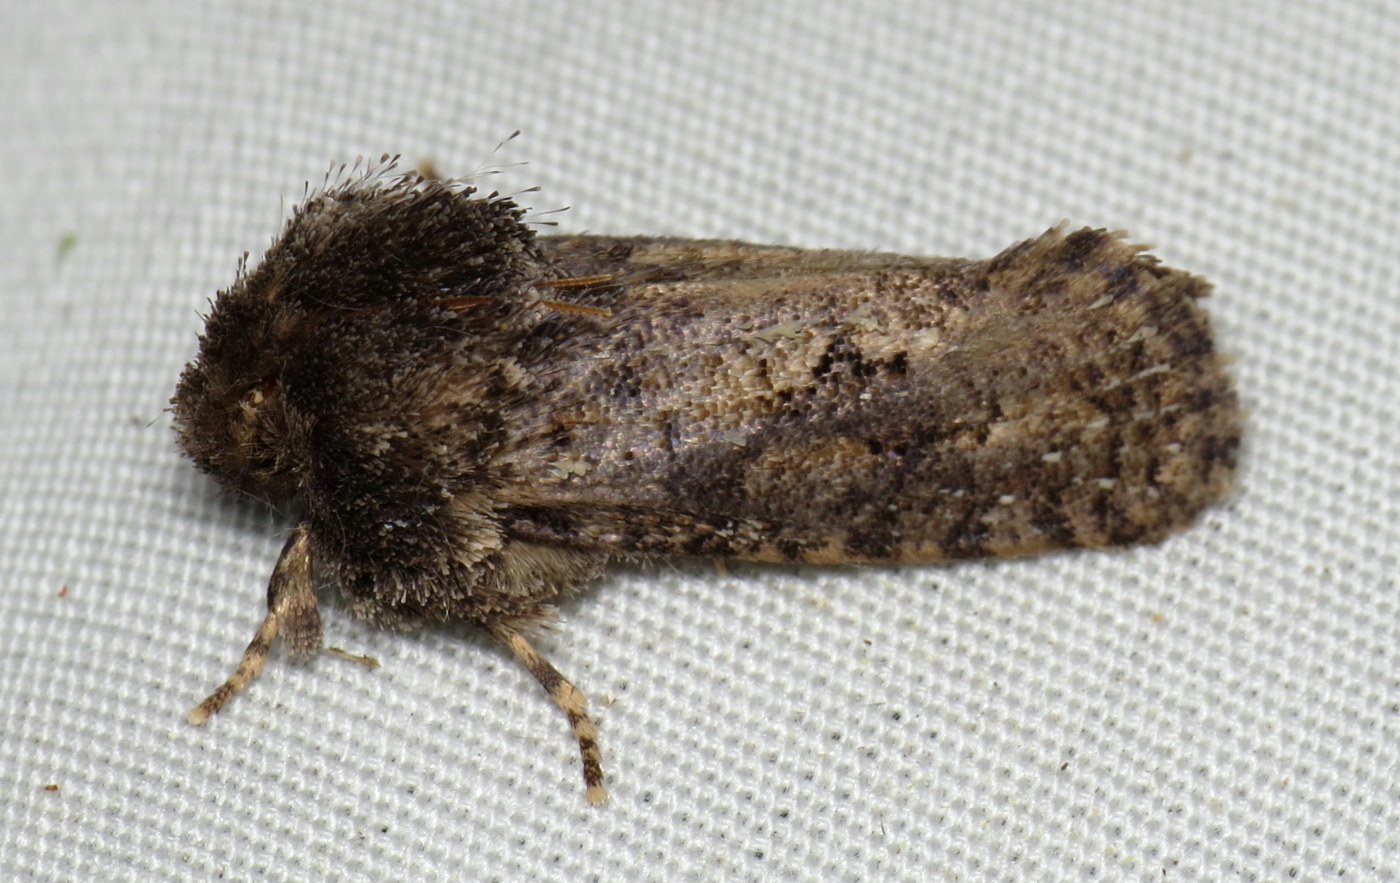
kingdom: Animalia
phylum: Arthropoda
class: Insecta
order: Lepidoptera
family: Tineidae
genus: Acrolophus
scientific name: Acrolophus arcanella
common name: Arcane grass tubeworm moth
